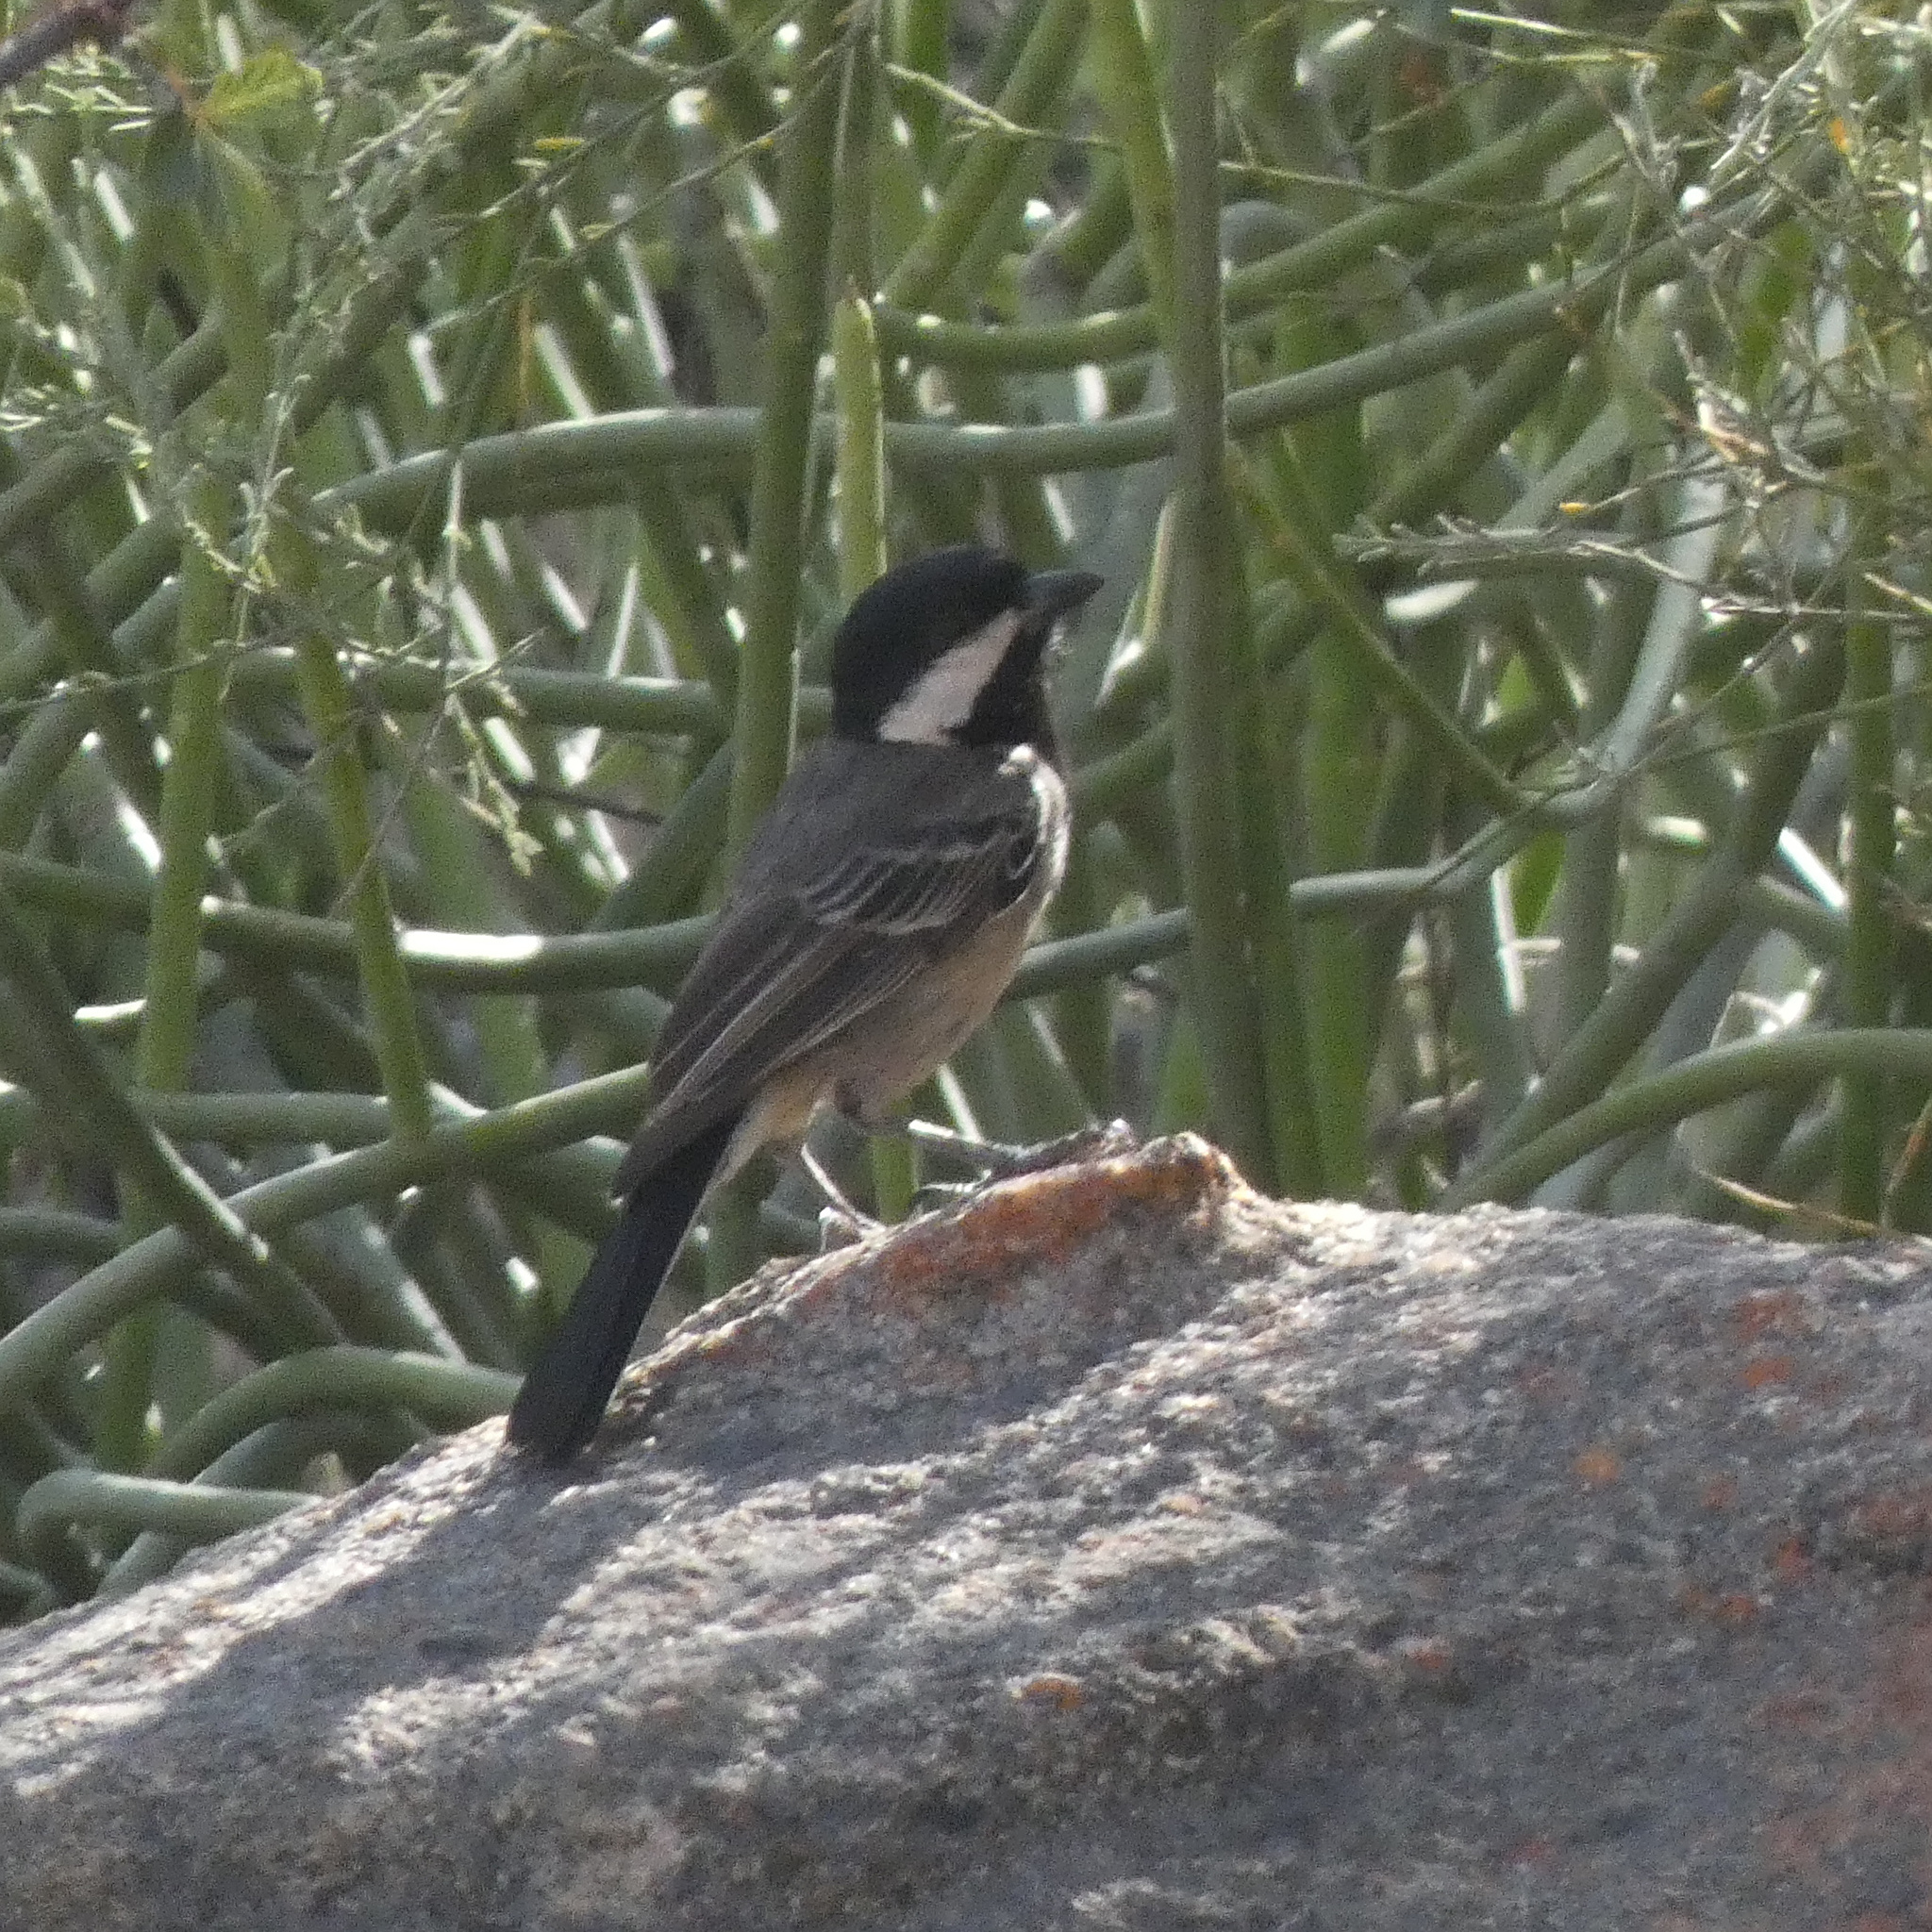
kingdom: Animalia
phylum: Chordata
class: Aves
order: Passeriformes
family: Paridae
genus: Parus
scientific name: Parus afer
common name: Grey tit
